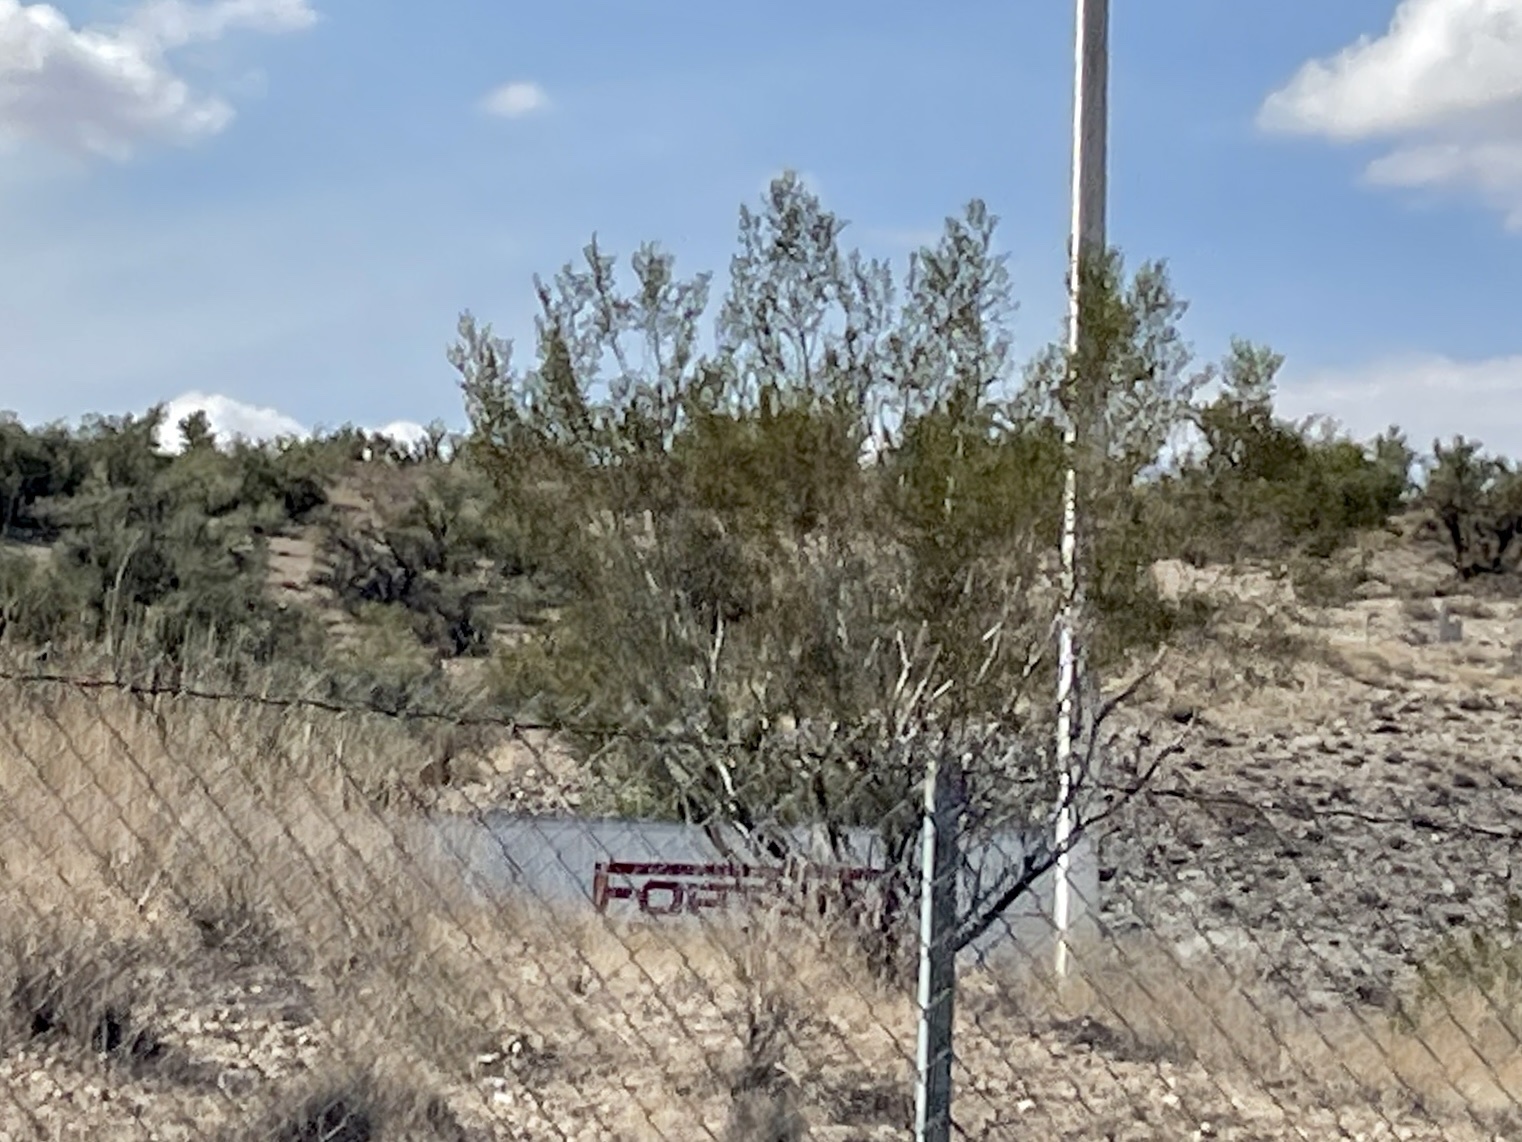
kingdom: Plantae
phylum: Tracheophyta
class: Magnoliopsida
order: Zygophyllales
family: Zygophyllaceae
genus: Larrea
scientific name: Larrea tridentata
